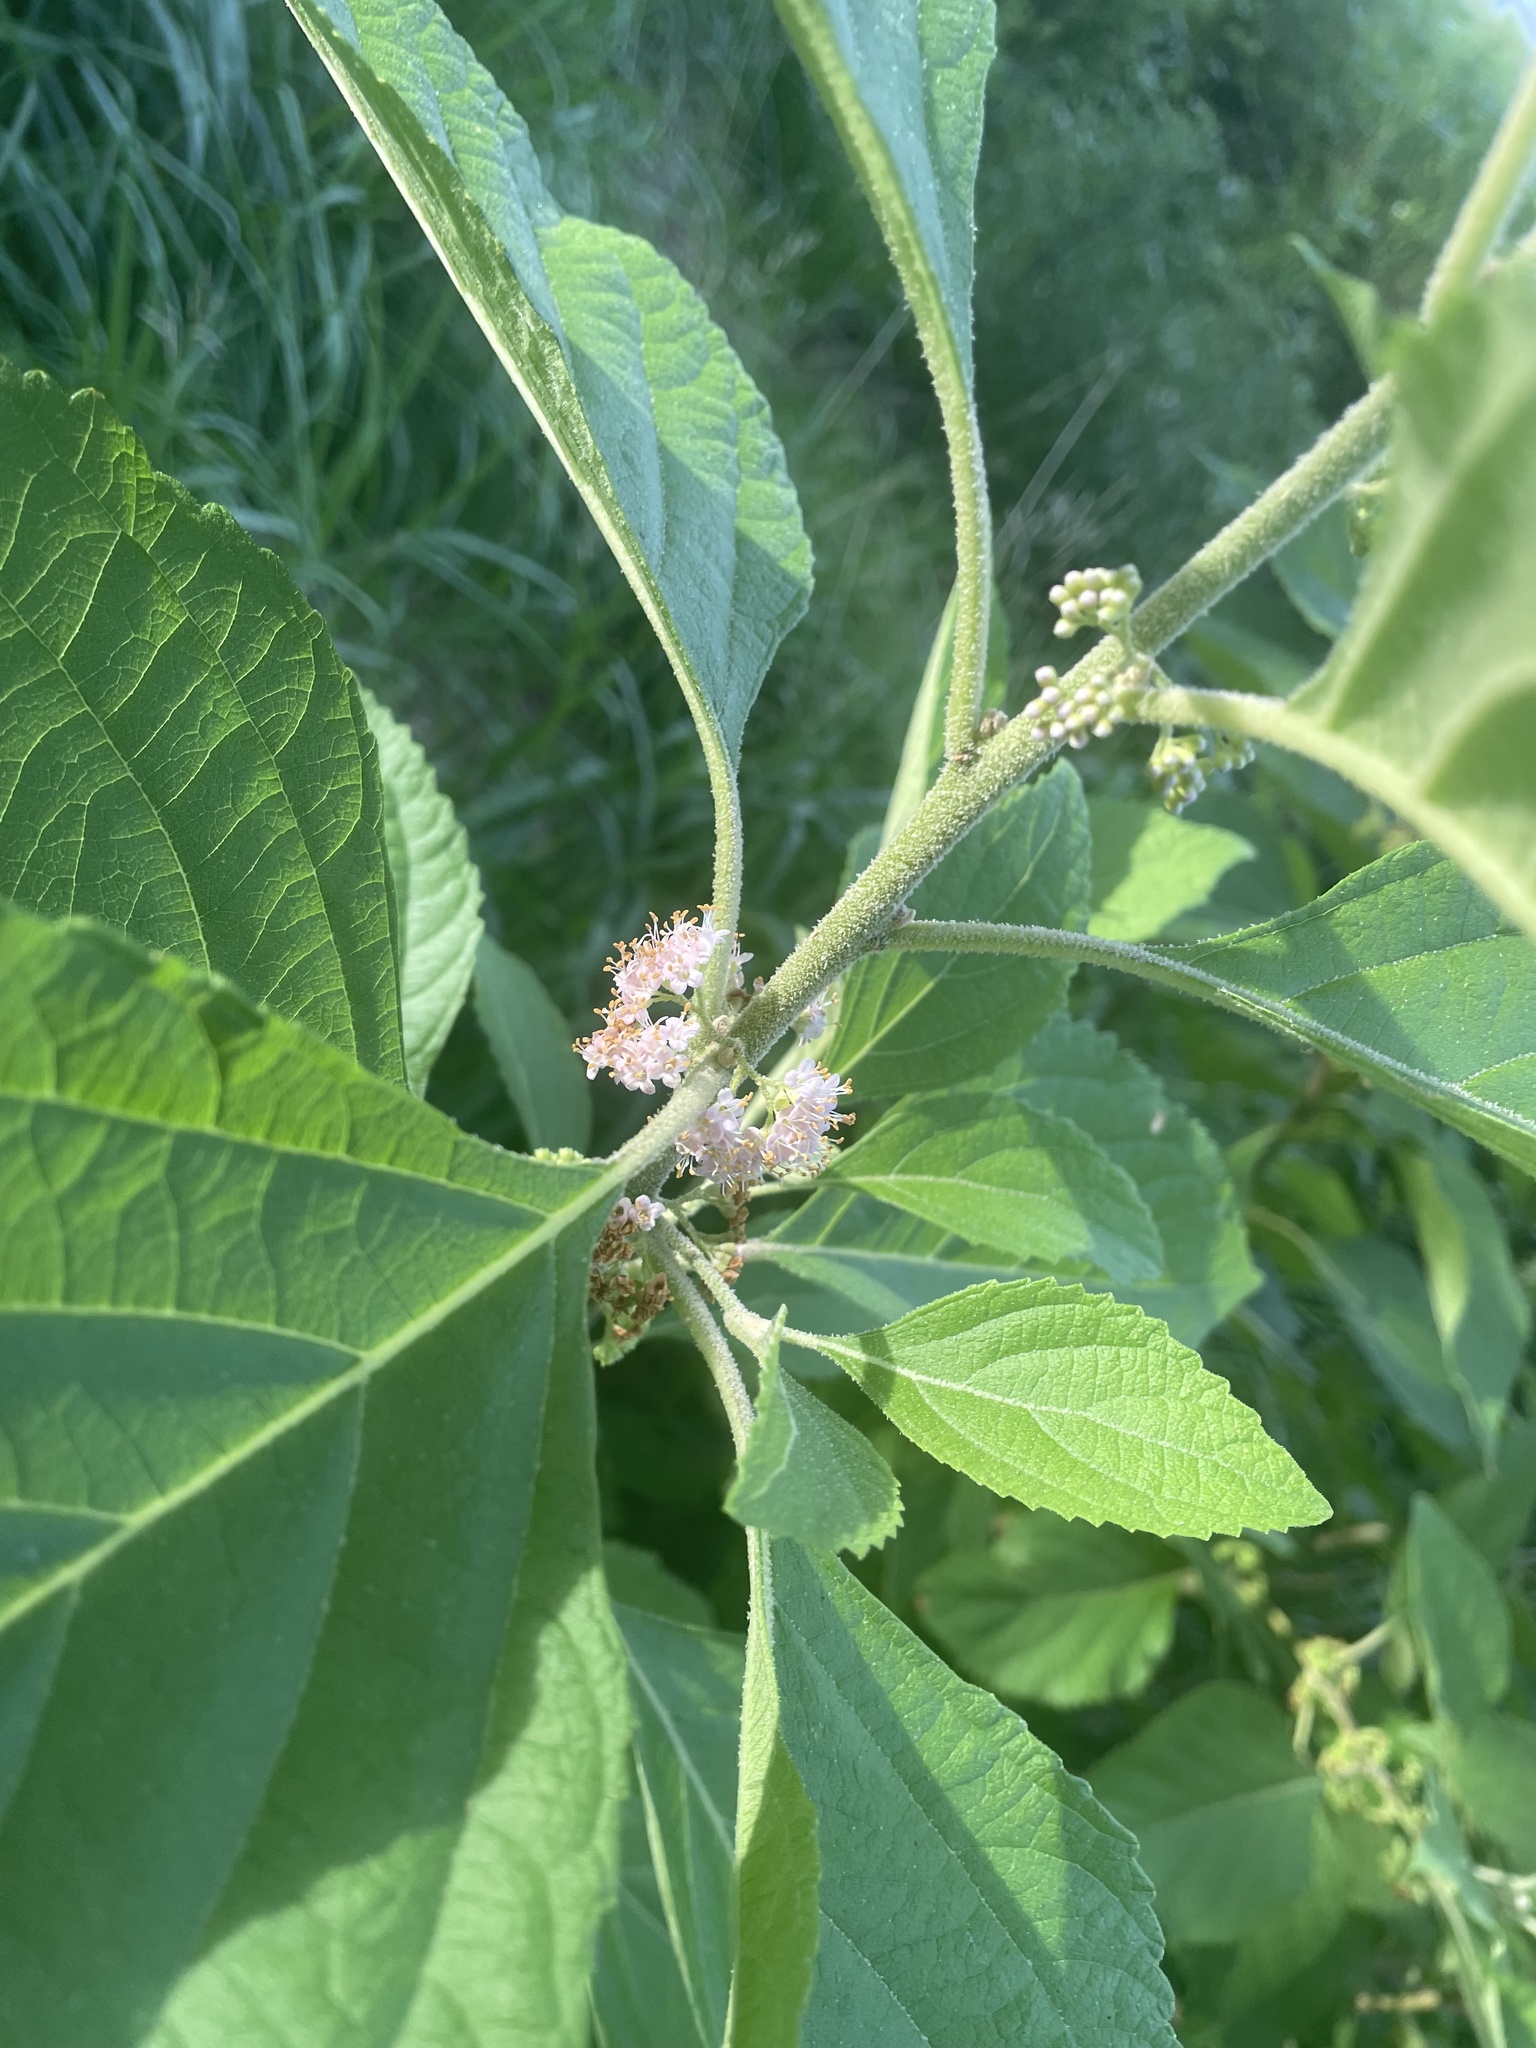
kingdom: Plantae
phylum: Tracheophyta
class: Magnoliopsida
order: Lamiales
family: Lamiaceae
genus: Callicarpa
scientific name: Callicarpa americana
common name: American beautyberry
